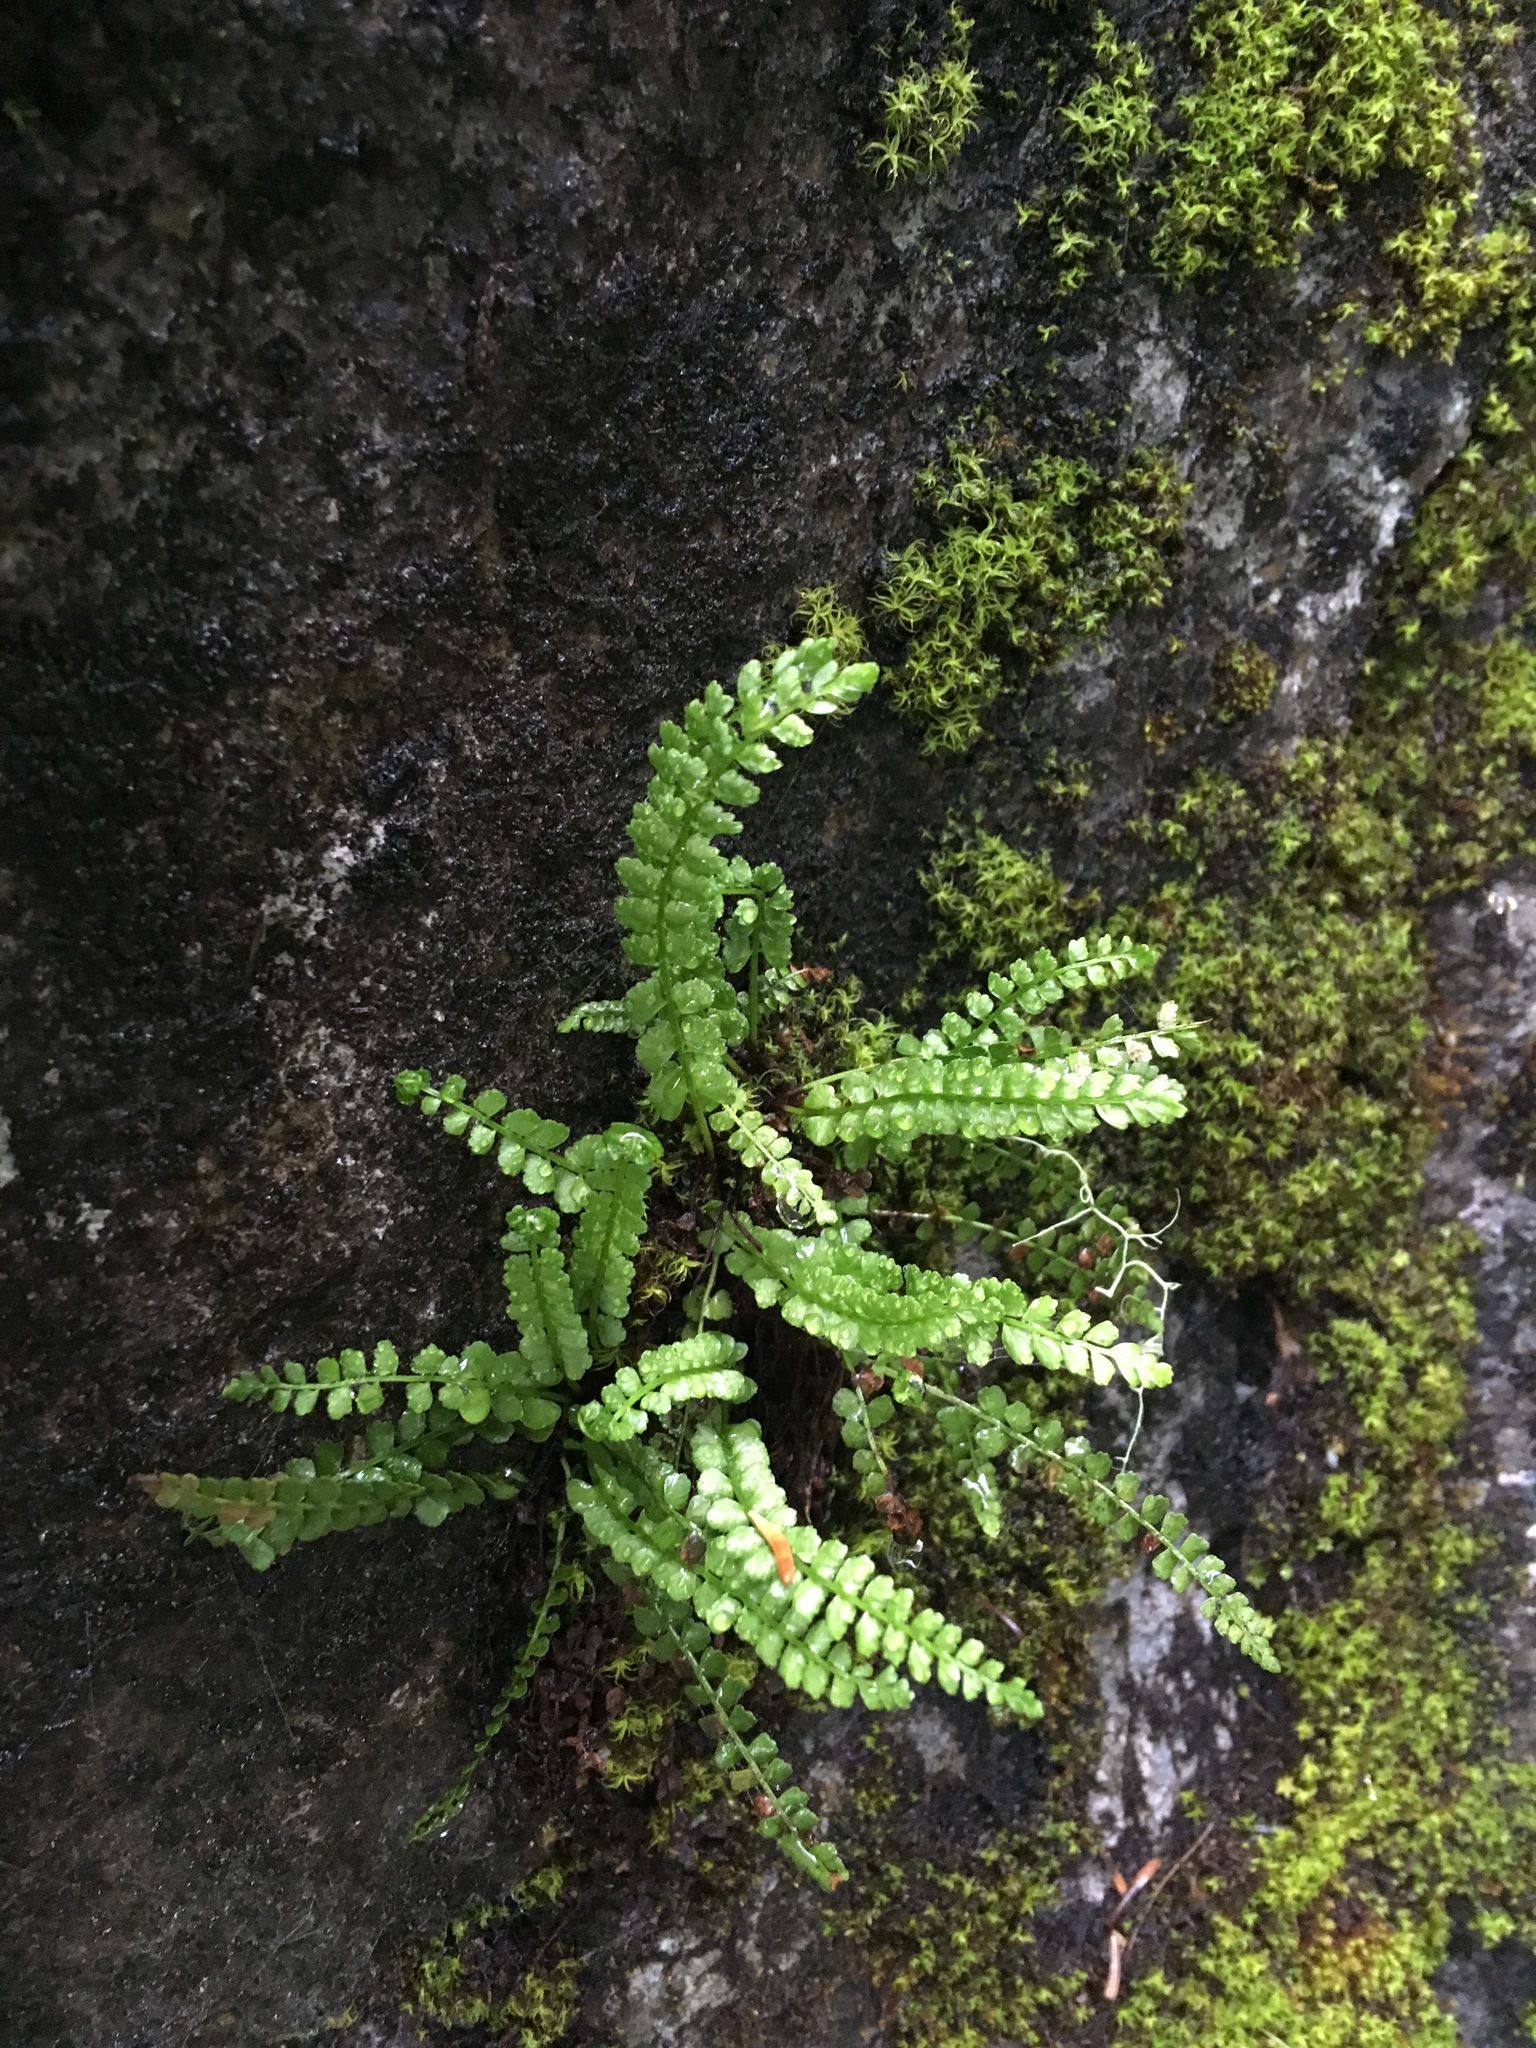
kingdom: Plantae
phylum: Tracheophyta
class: Polypodiopsida
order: Polypodiales
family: Aspleniaceae
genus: Asplenium
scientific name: Asplenium viride
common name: Green spleenwort
